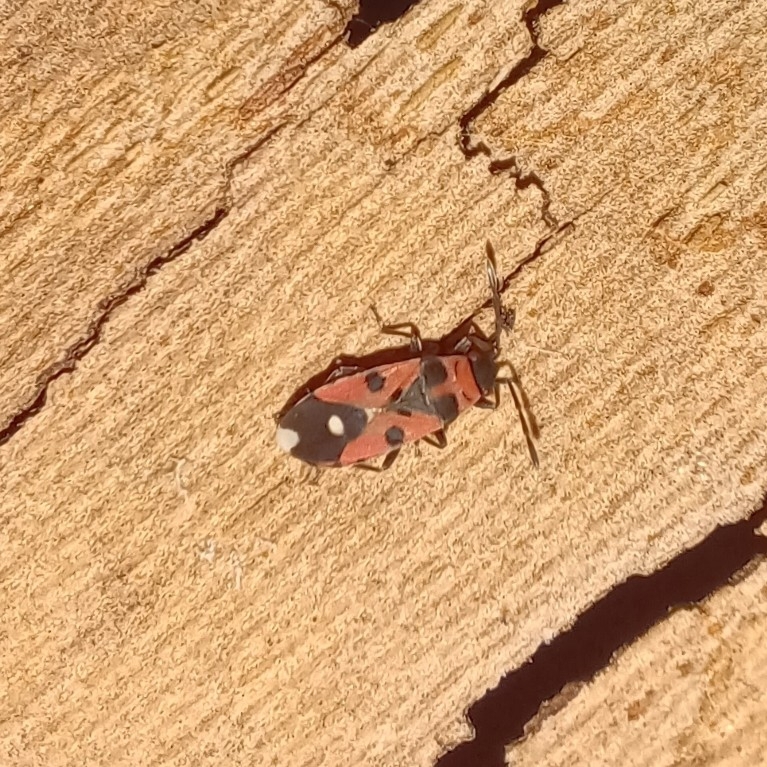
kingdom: Animalia
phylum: Arthropoda
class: Insecta
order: Hemiptera
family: Lygaeidae
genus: Horvathiolus
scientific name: Horvathiolus superbus
